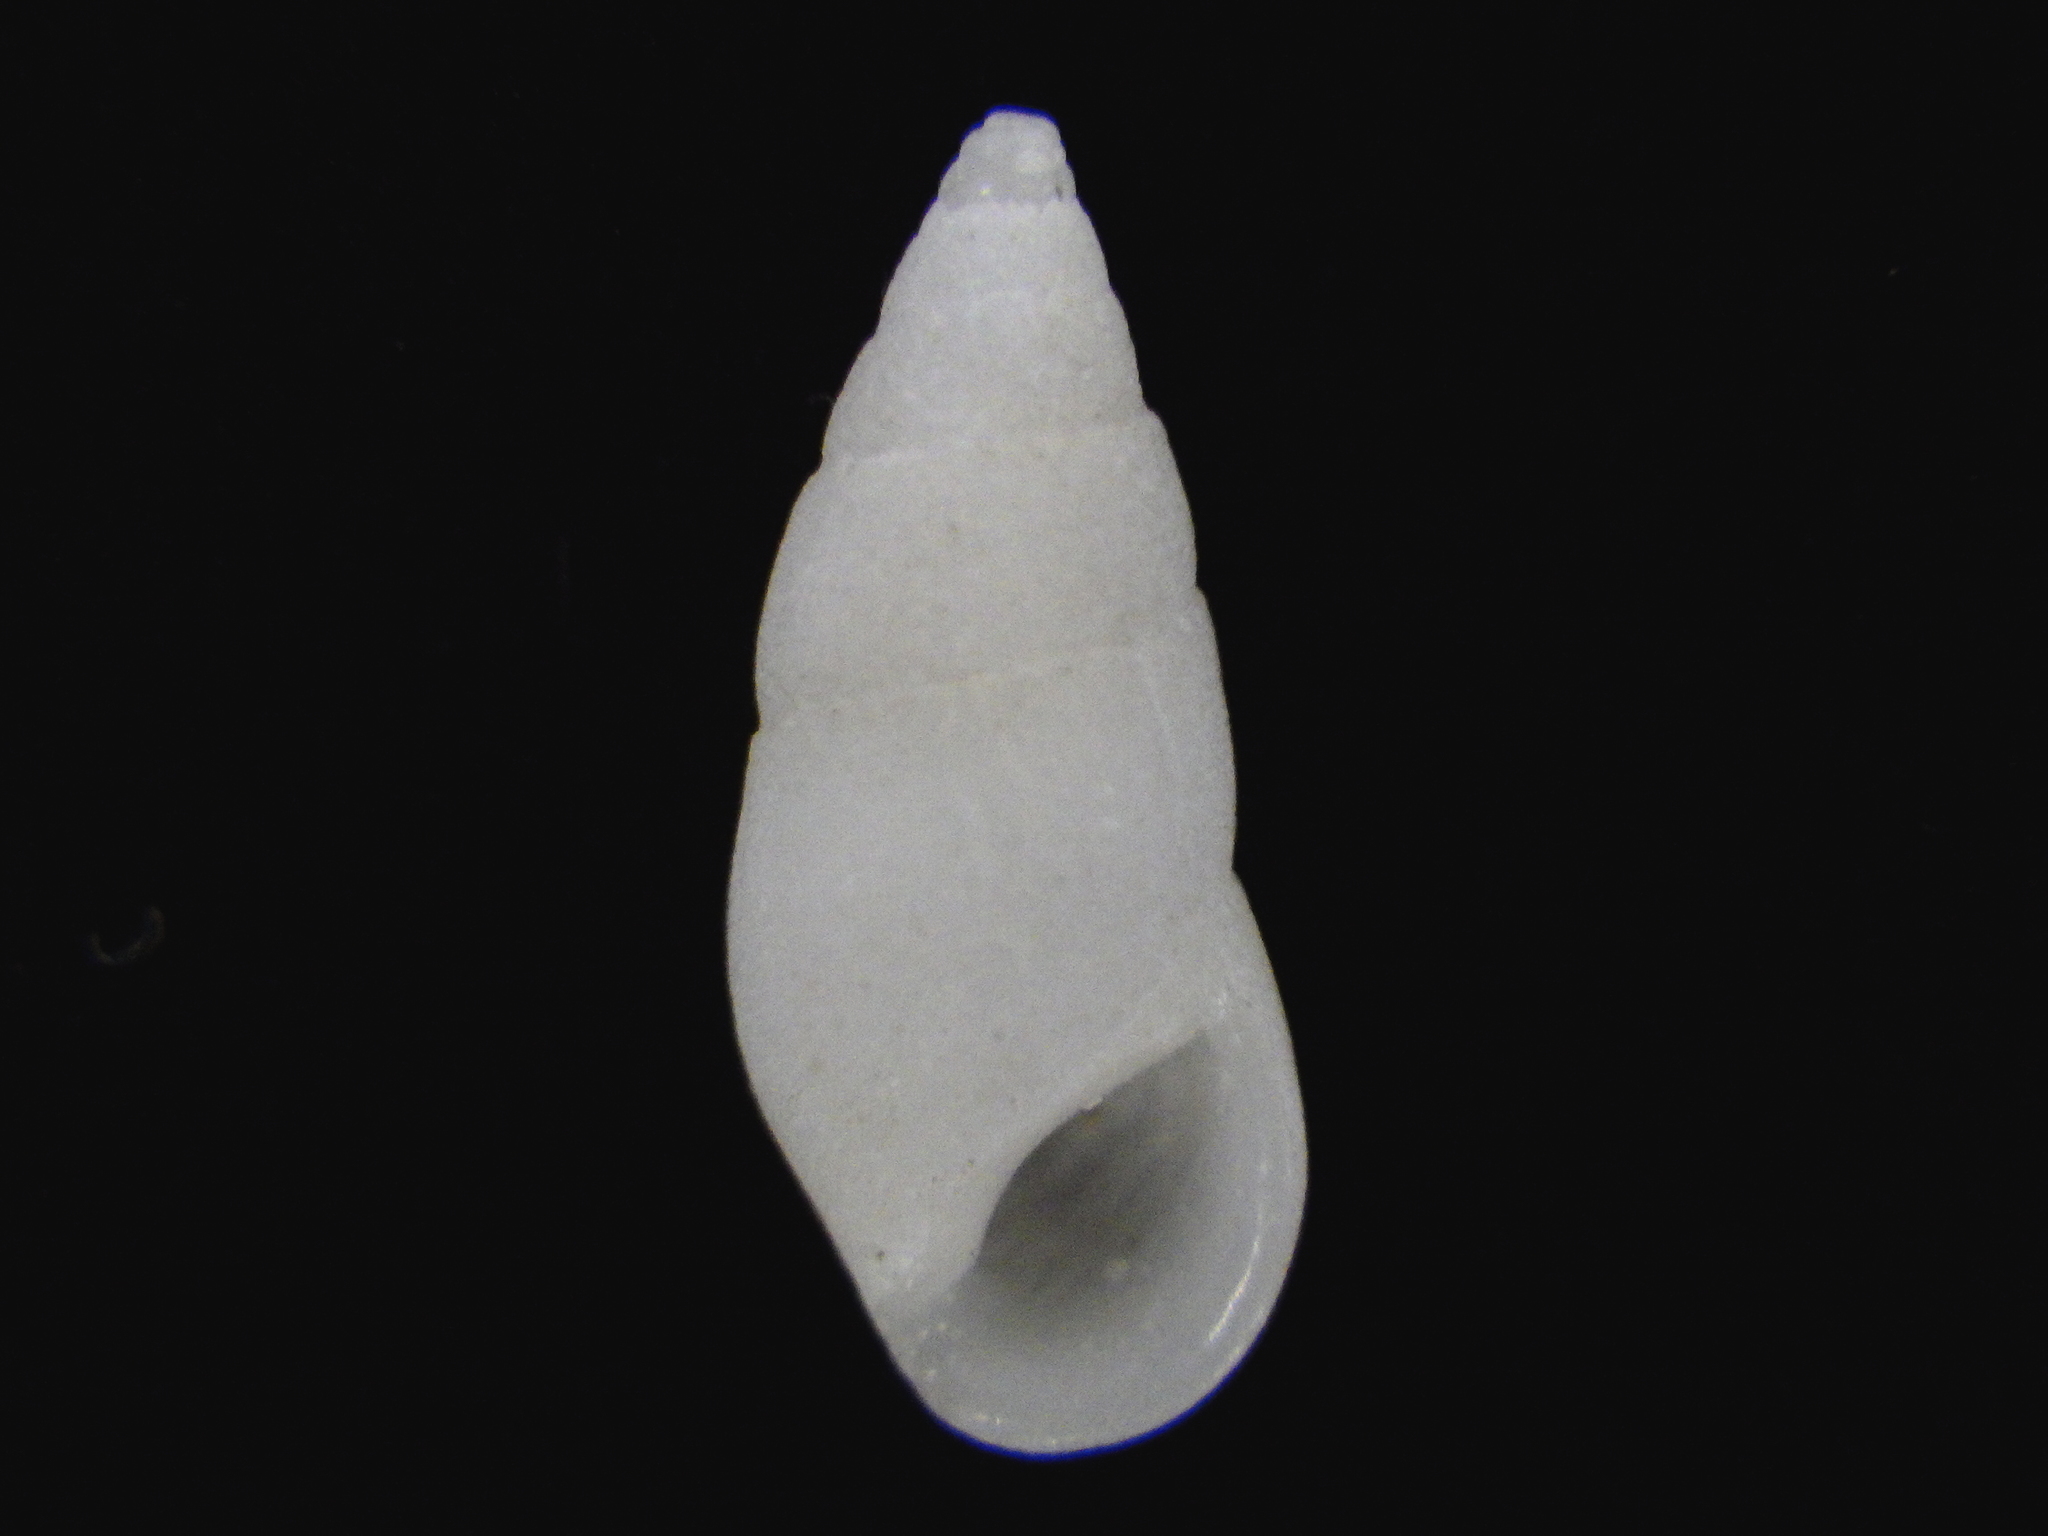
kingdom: Animalia
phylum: Mollusca
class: Gastropoda
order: Littorinimorpha
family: Rissoinidae
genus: Rissoina
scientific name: Rissoina zonata
